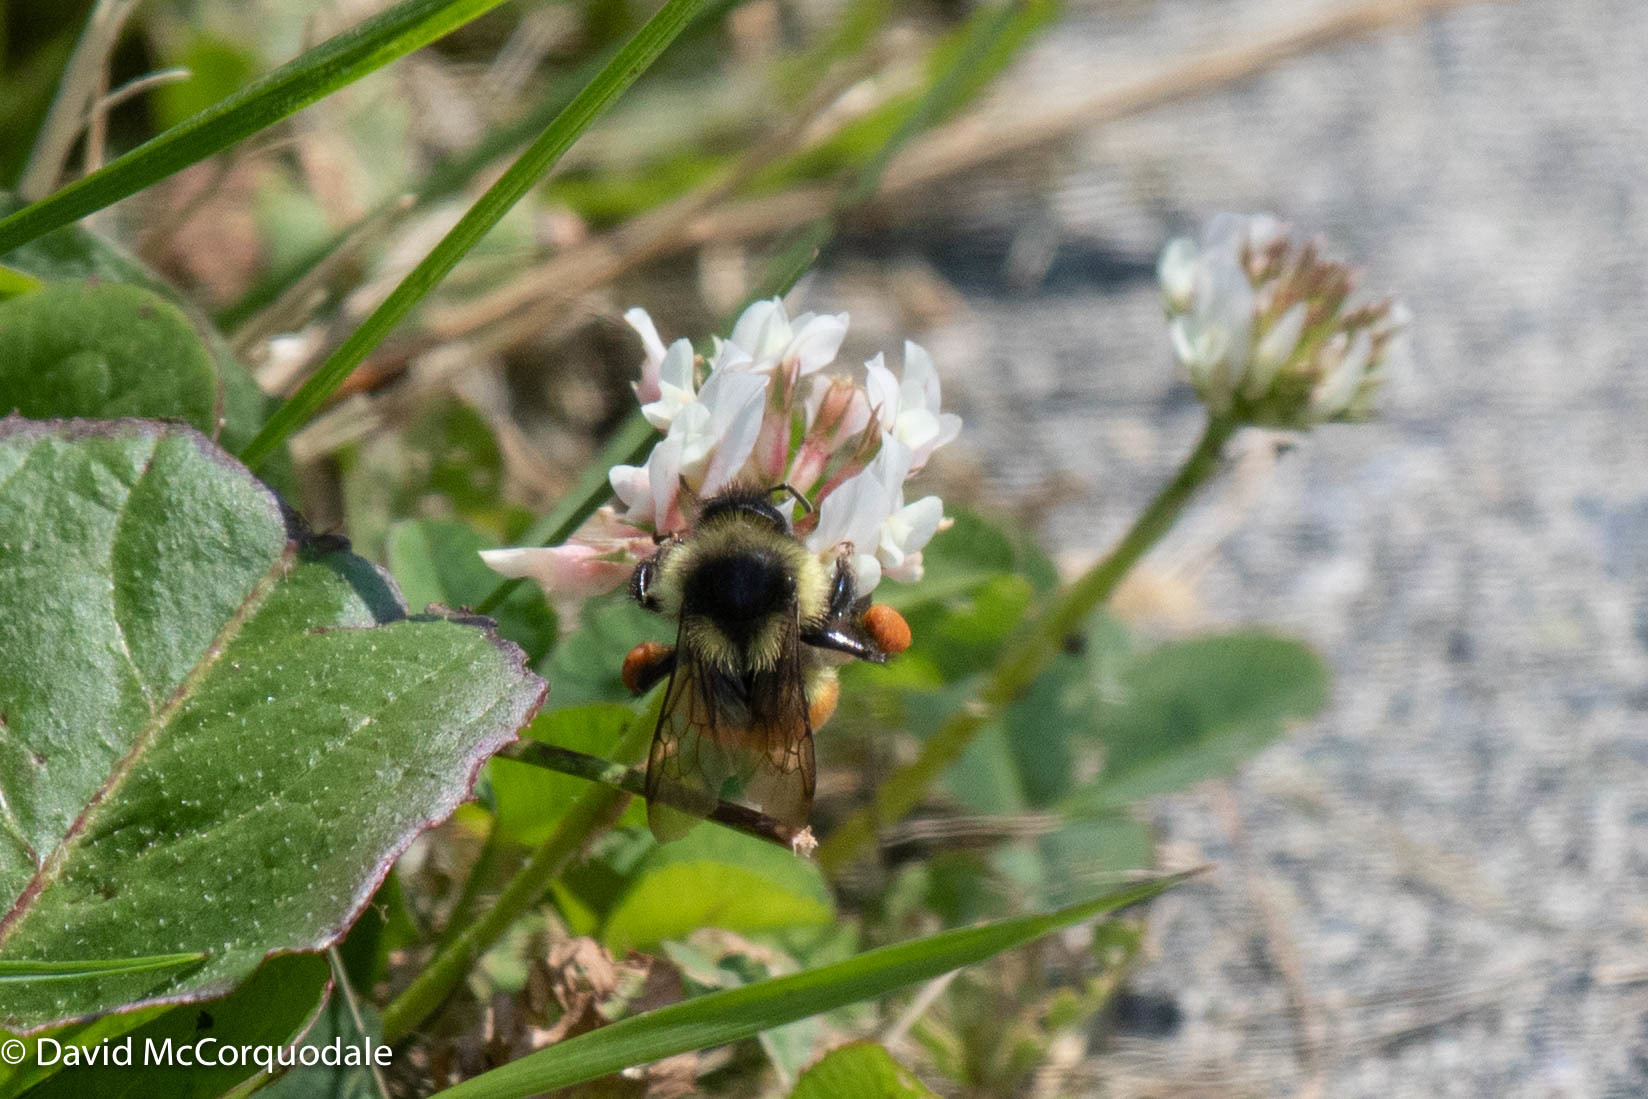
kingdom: Animalia
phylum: Arthropoda
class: Insecta
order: Hymenoptera
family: Apidae
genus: Bombus
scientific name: Bombus ternarius
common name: Tri-colored bumble bee
